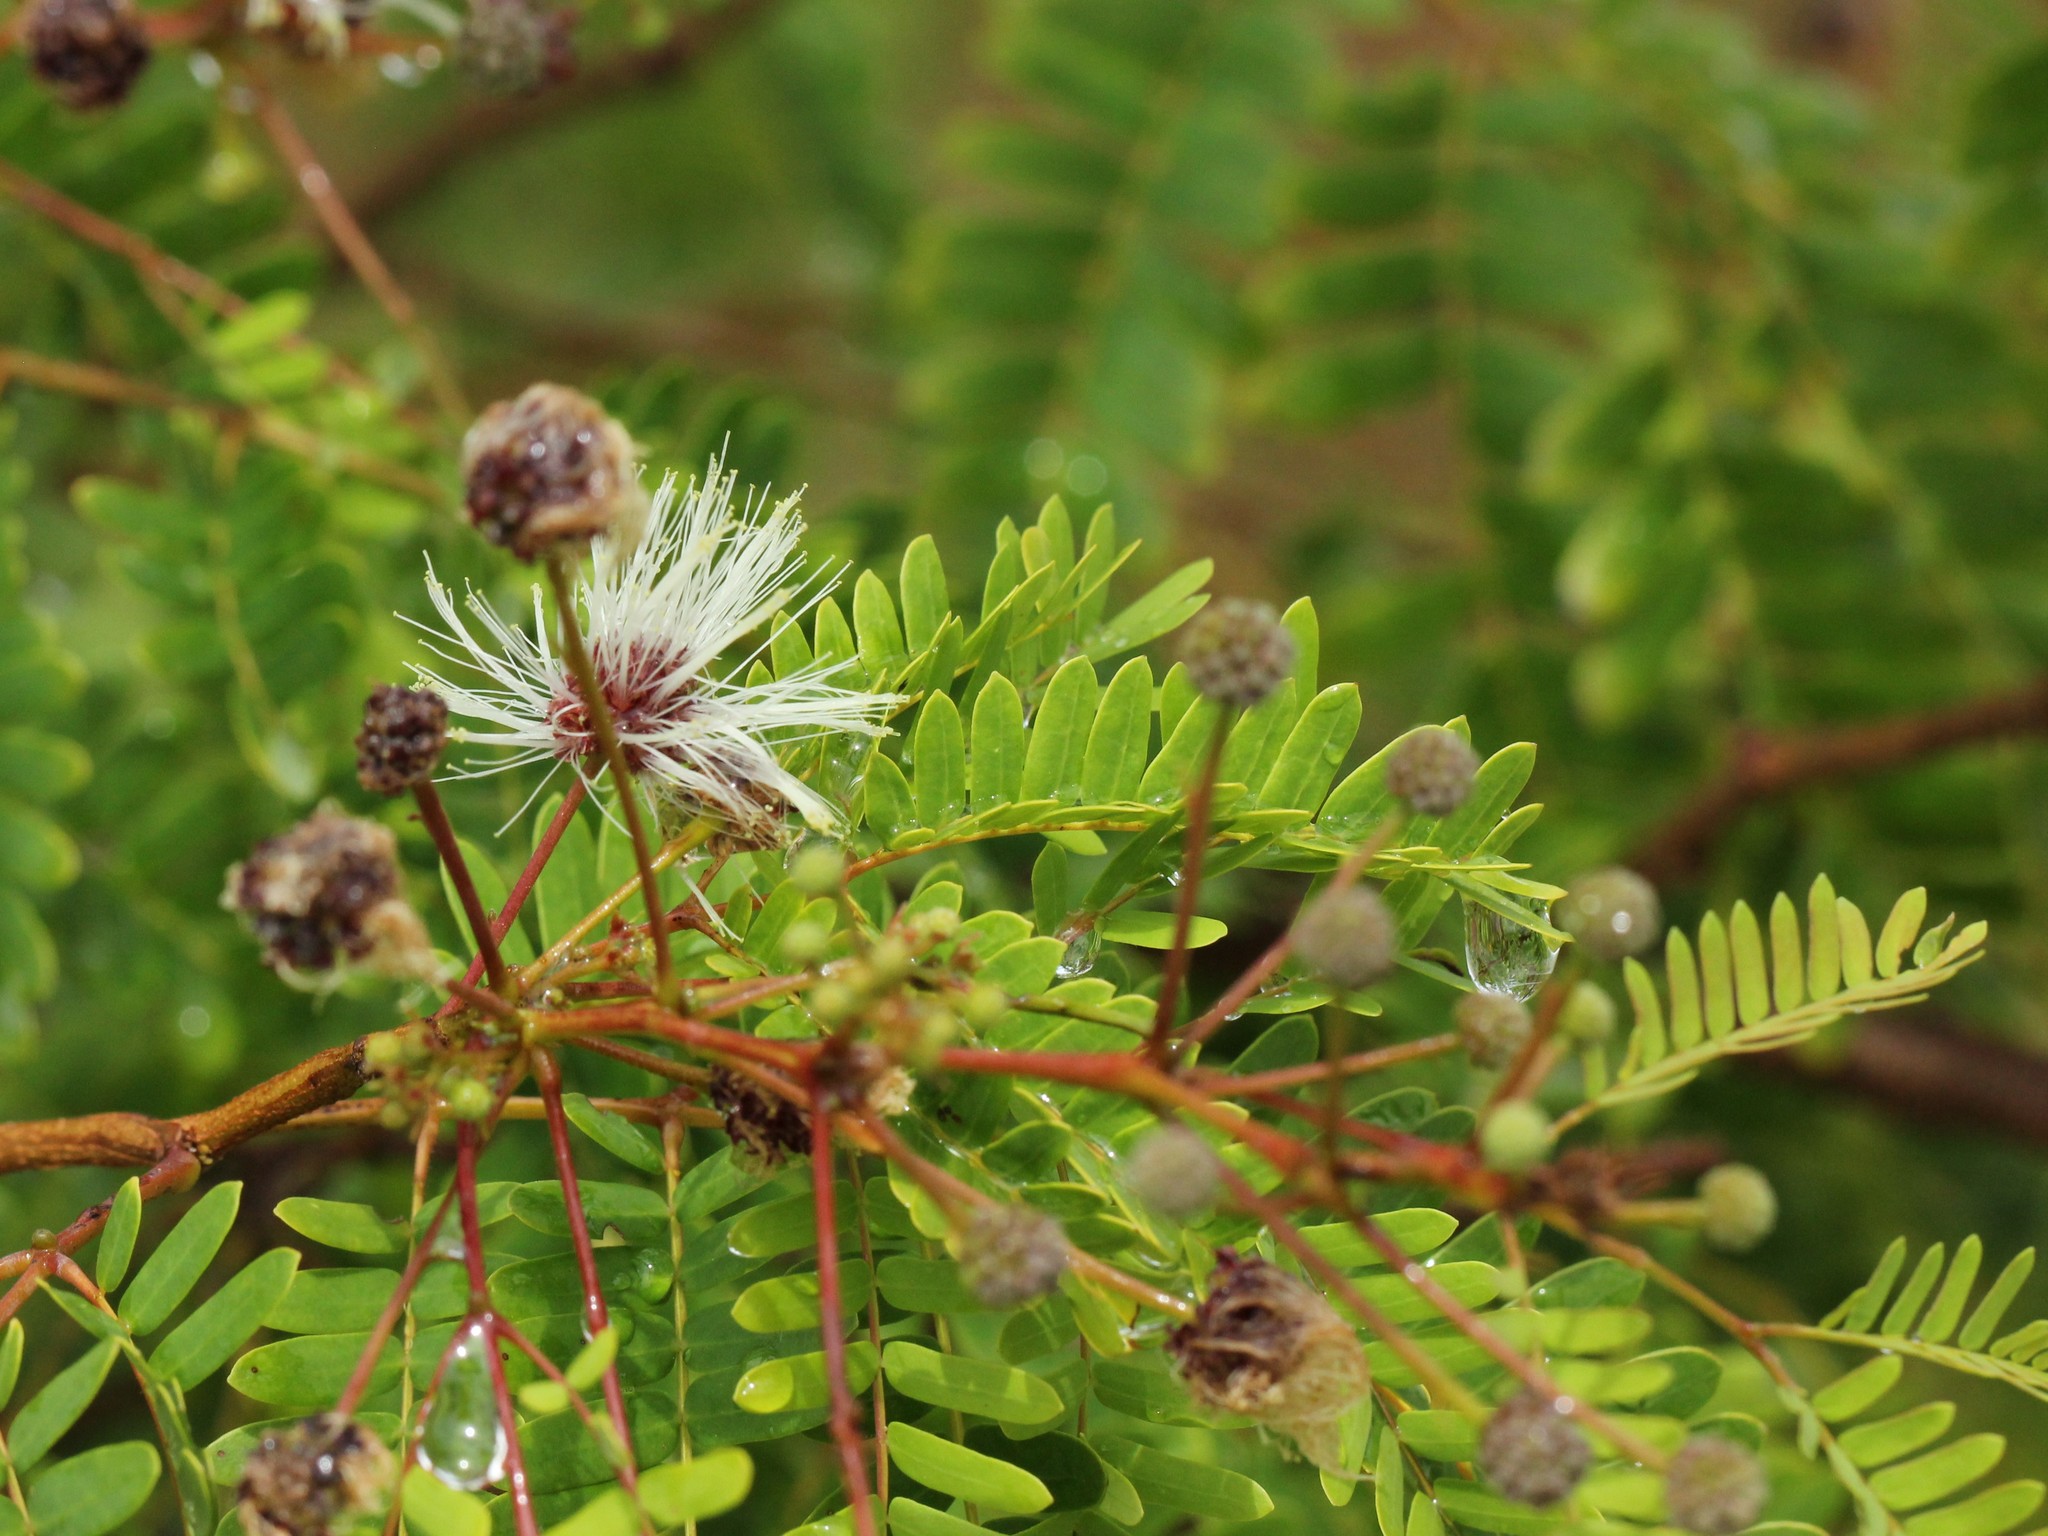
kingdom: Plantae
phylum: Tracheophyta
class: Magnoliopsida
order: Fabales
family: Fabaceae
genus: Lysiloma
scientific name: Lysiloma latisiliquum
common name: Wild tamarind
